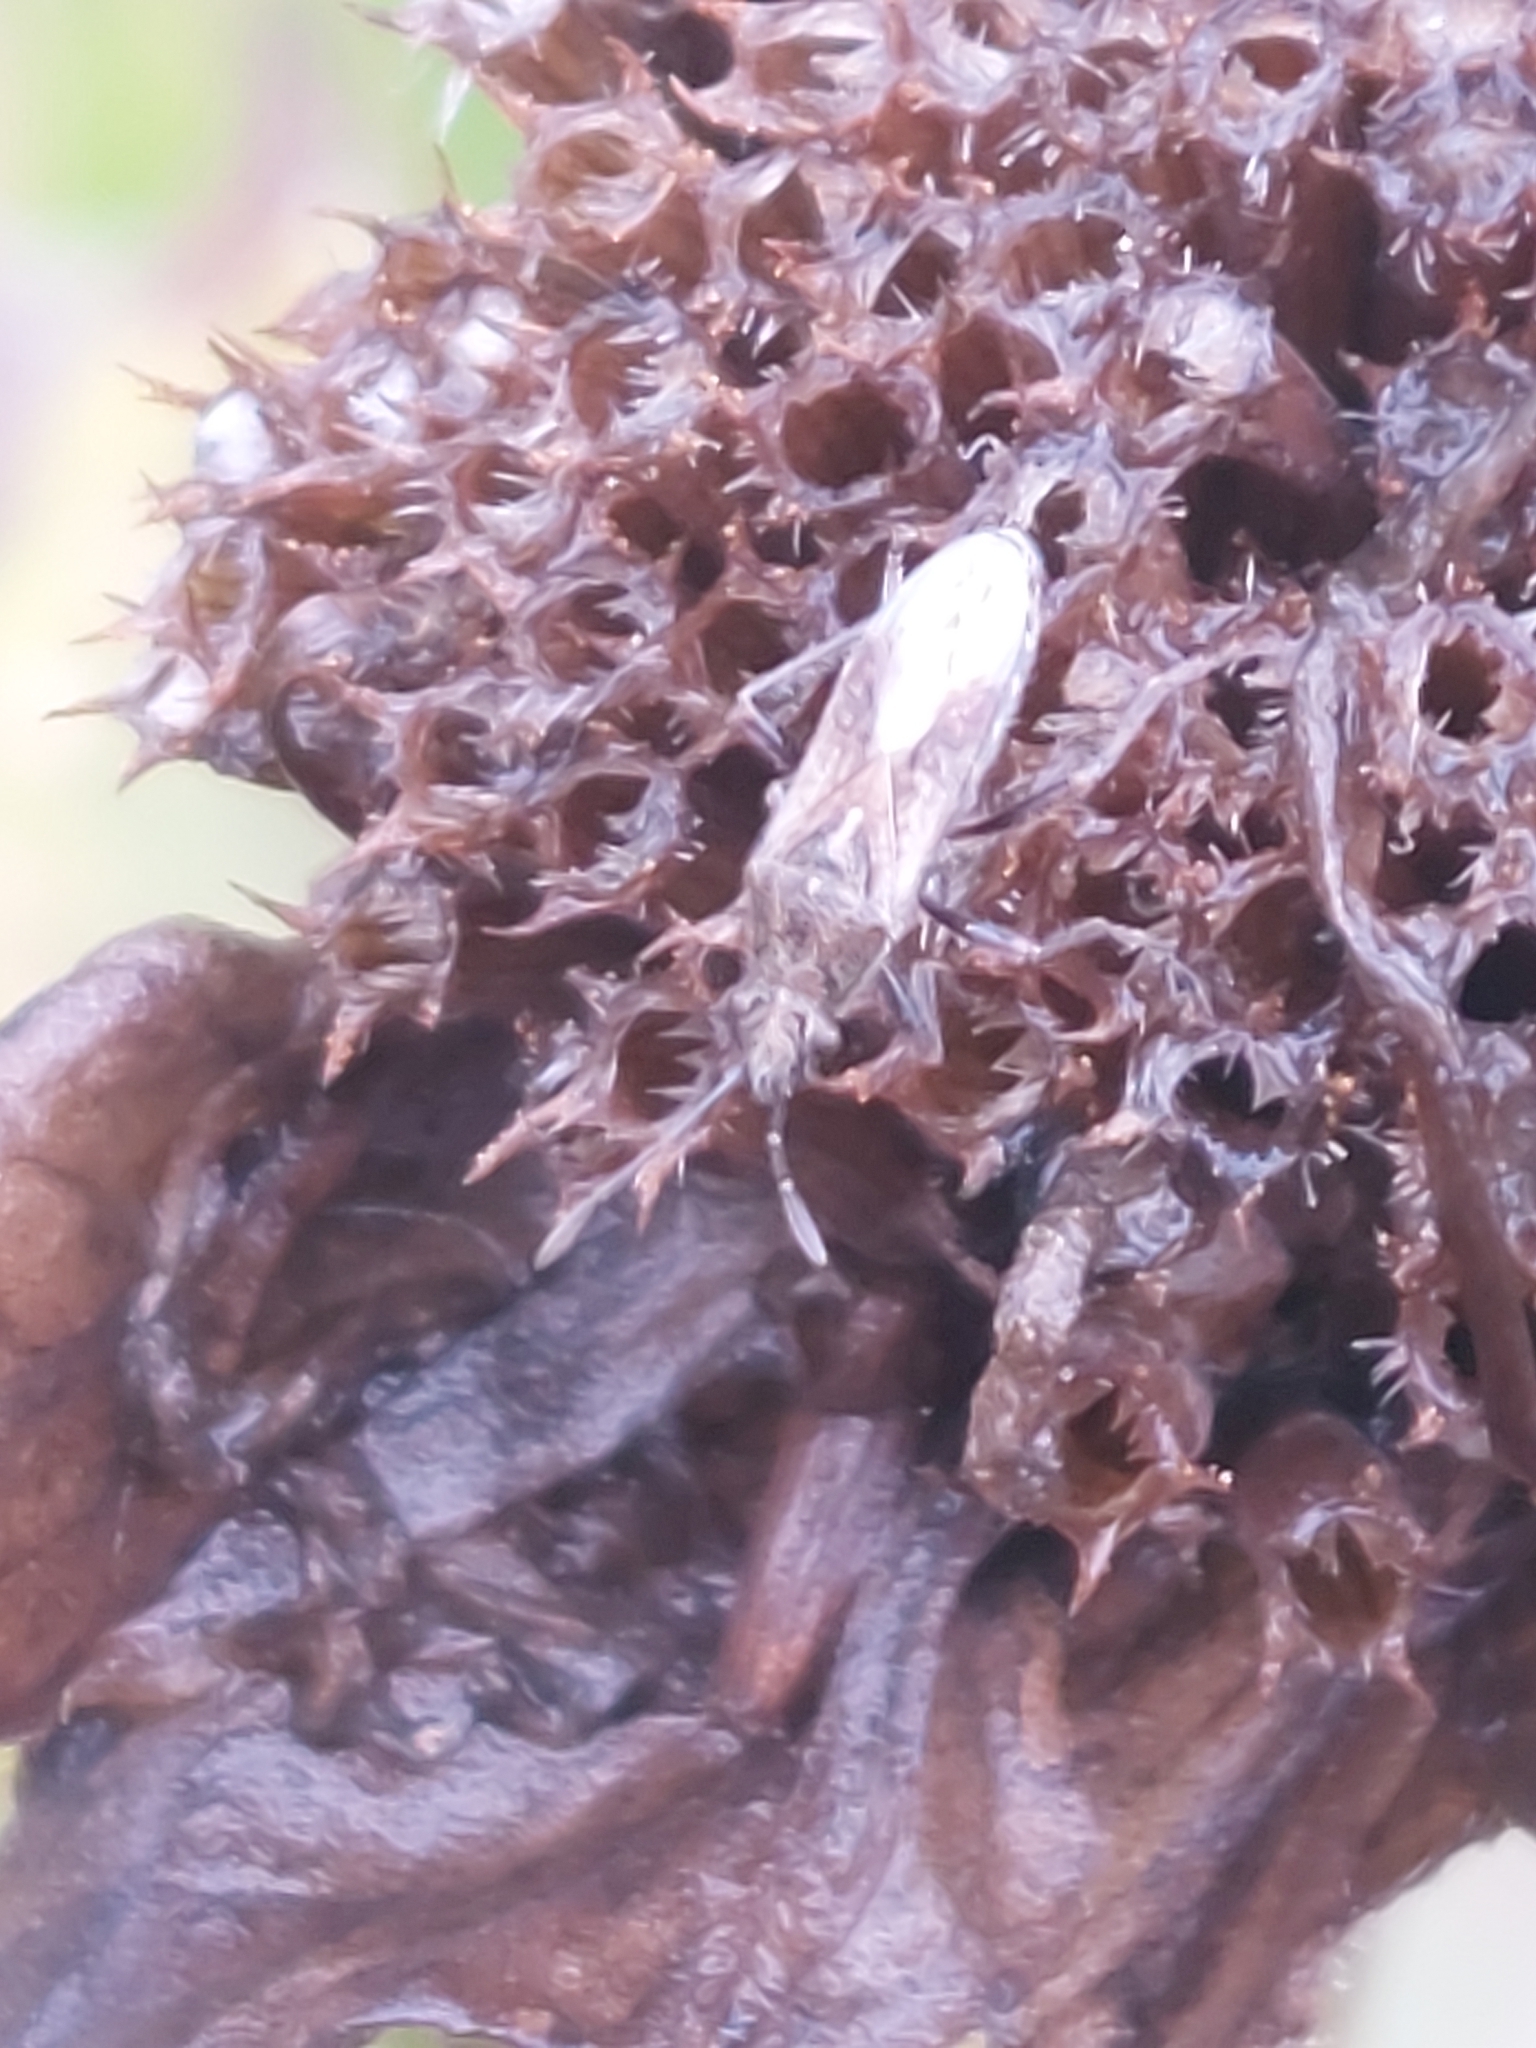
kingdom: Animalia
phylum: Arthropoda
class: Insecta
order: Hemiptera
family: Lygaeidae
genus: Neortholomus
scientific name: Neortholomus scolopax
